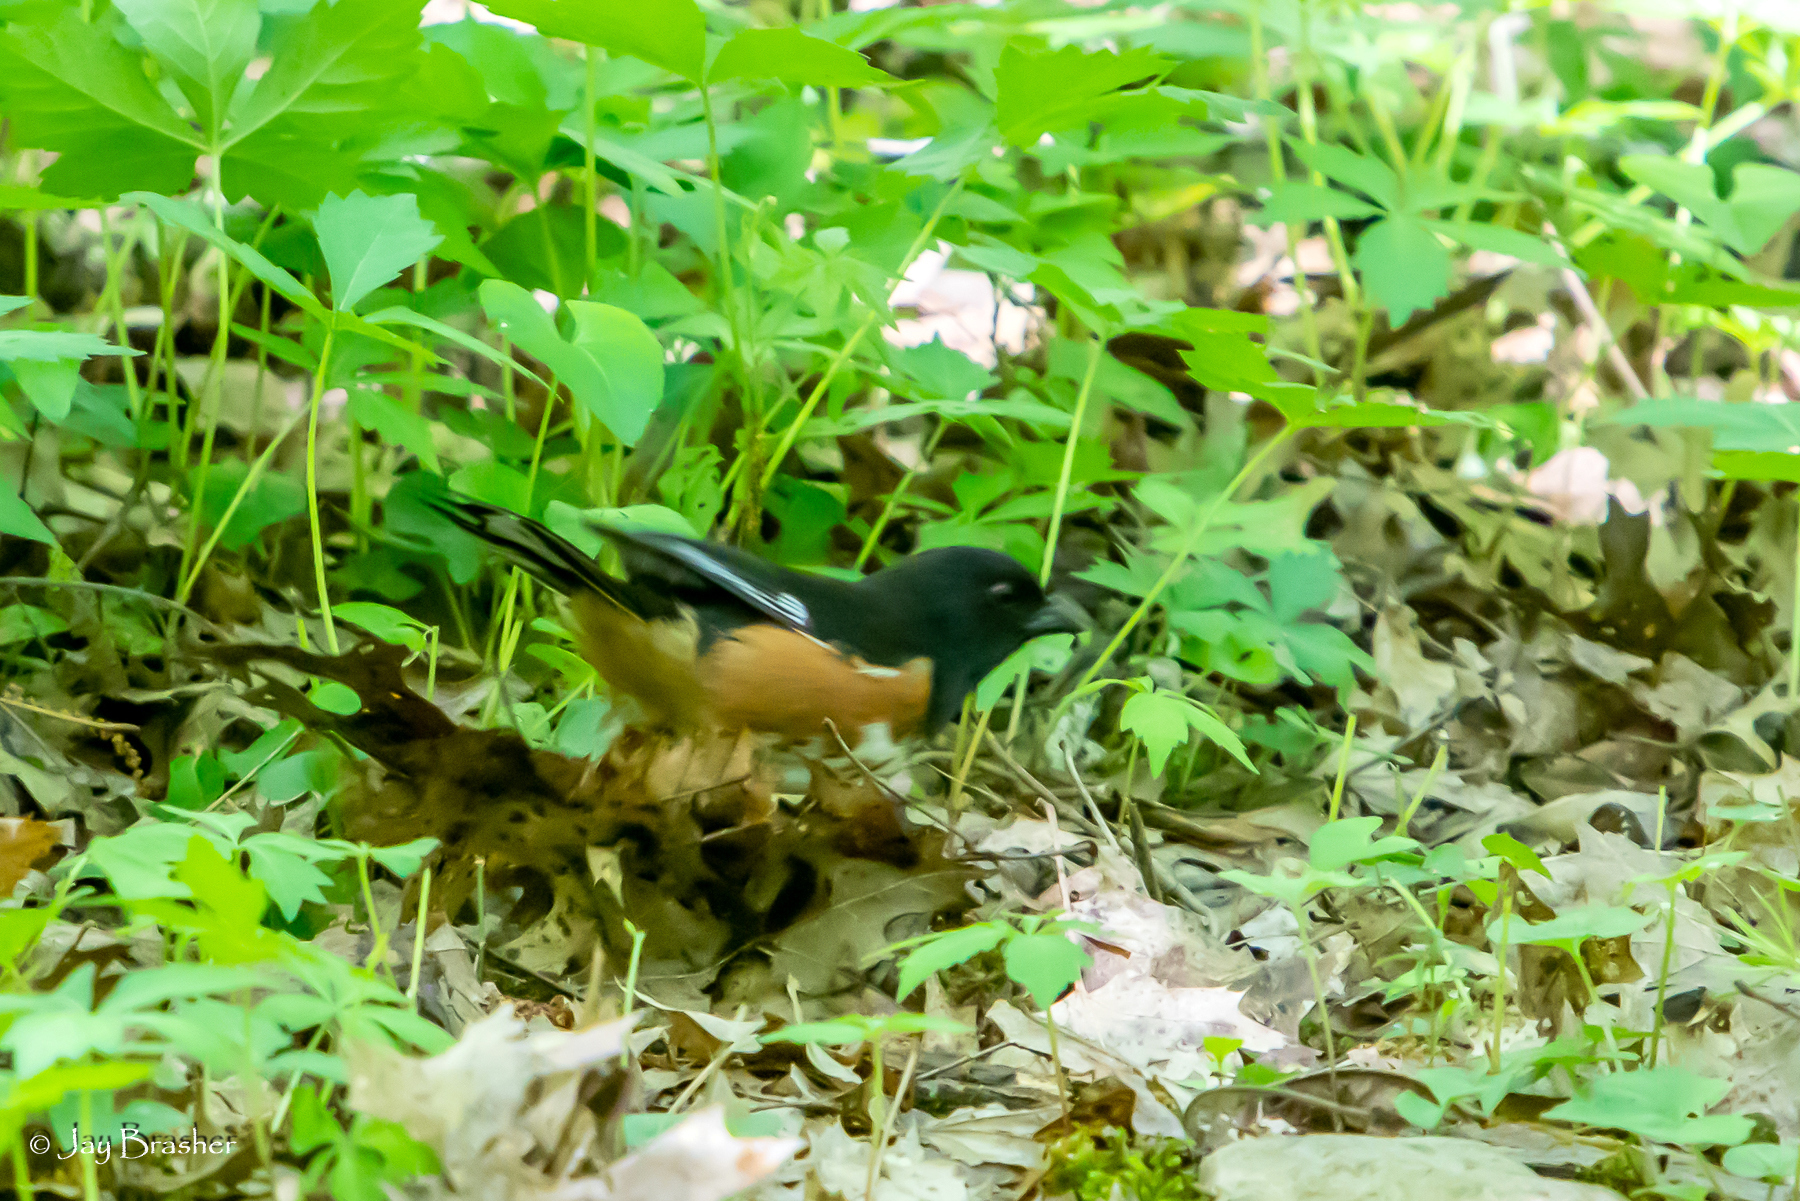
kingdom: Animalia
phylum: Chordata
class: Aves
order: Passeriformes
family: Passerellidae
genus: Pipilo
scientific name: Pipilo erythrophthalmus
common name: Eastern towhee
